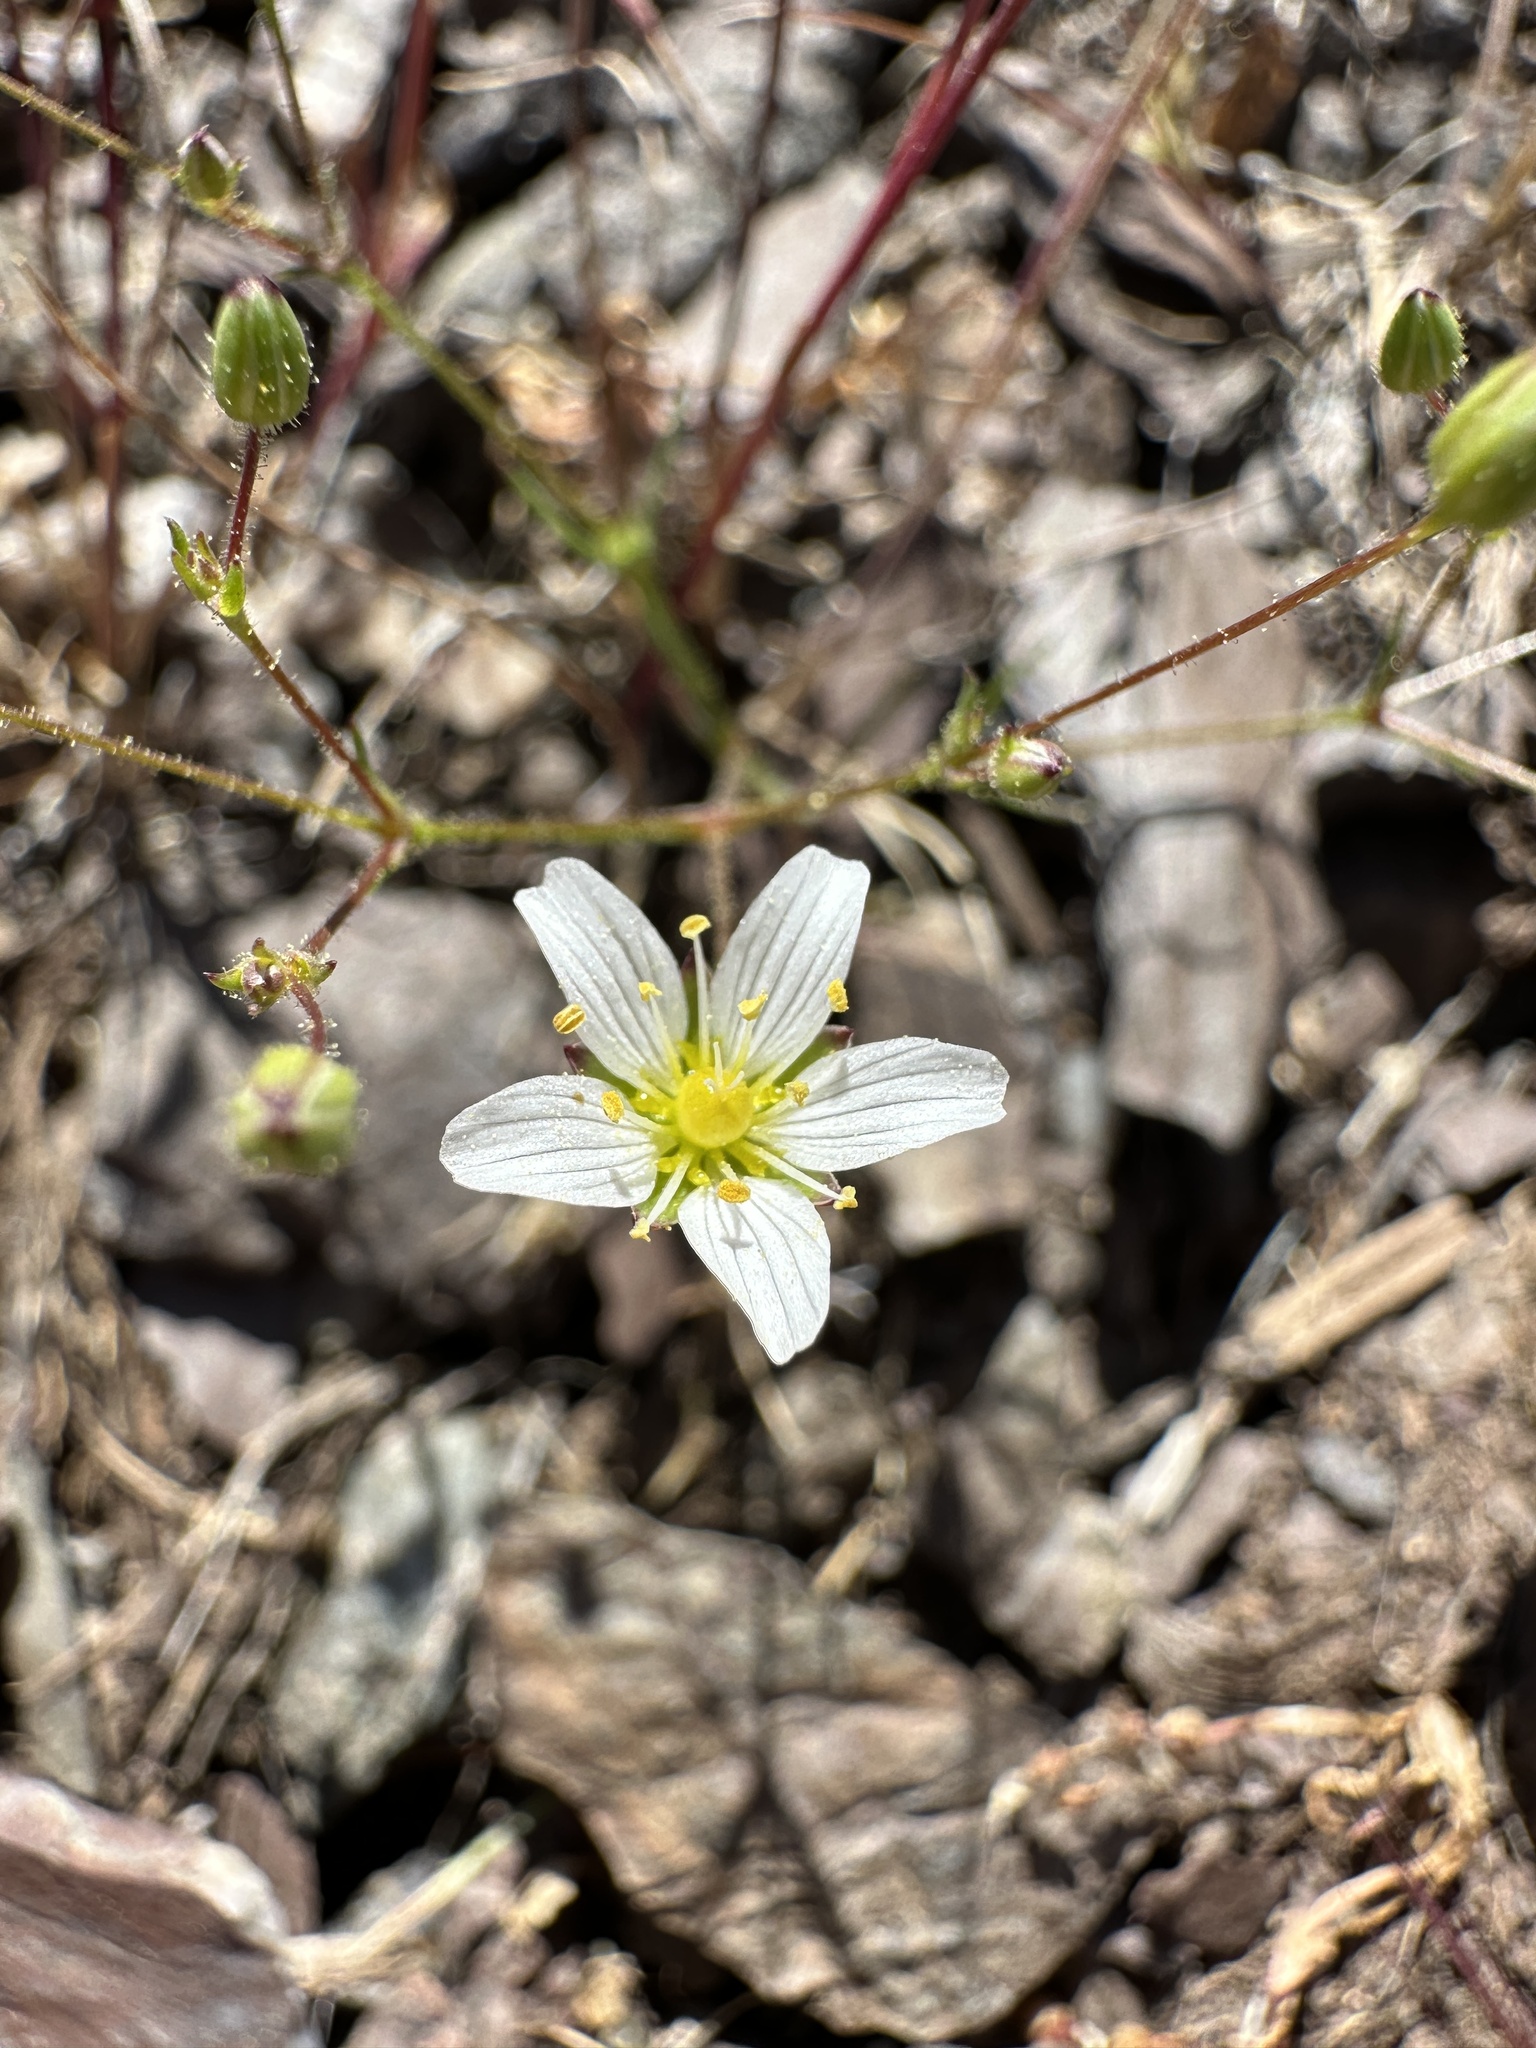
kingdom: Plantae
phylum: Tracheophyta
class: Magnoliopsida
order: Caryophyllales
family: Caryophyllaceae
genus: Sabulina
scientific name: Sabulina douglasii
